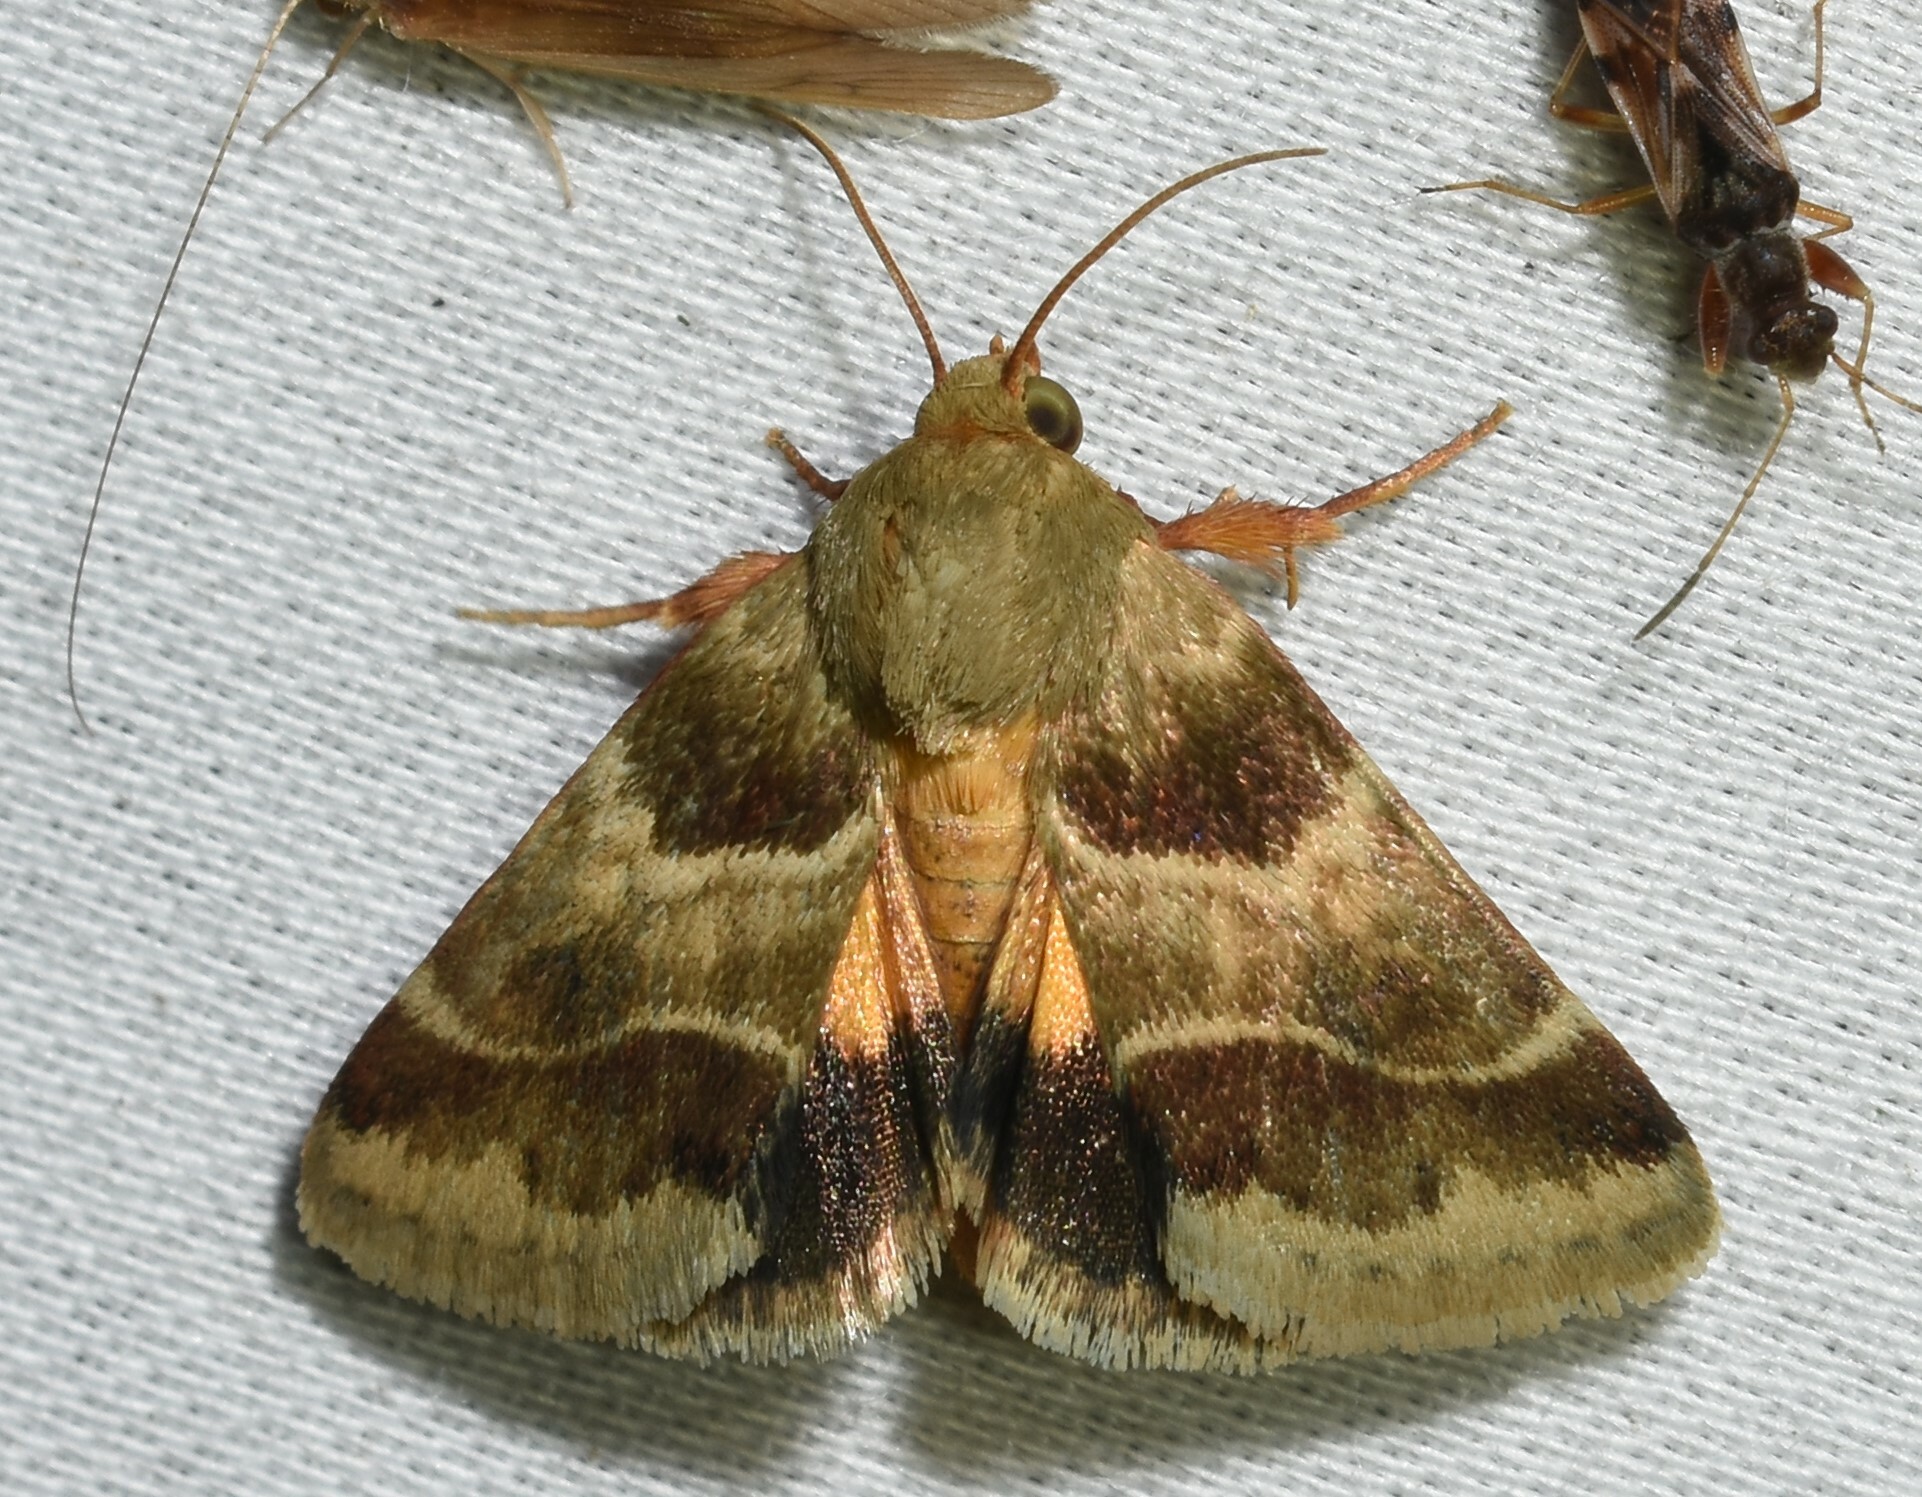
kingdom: Animalia
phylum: Arthropoda
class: Insecta
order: Lepidoptera
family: Noctuidae
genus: Schinia
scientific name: Schinia lynx
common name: Lynx flower moth
